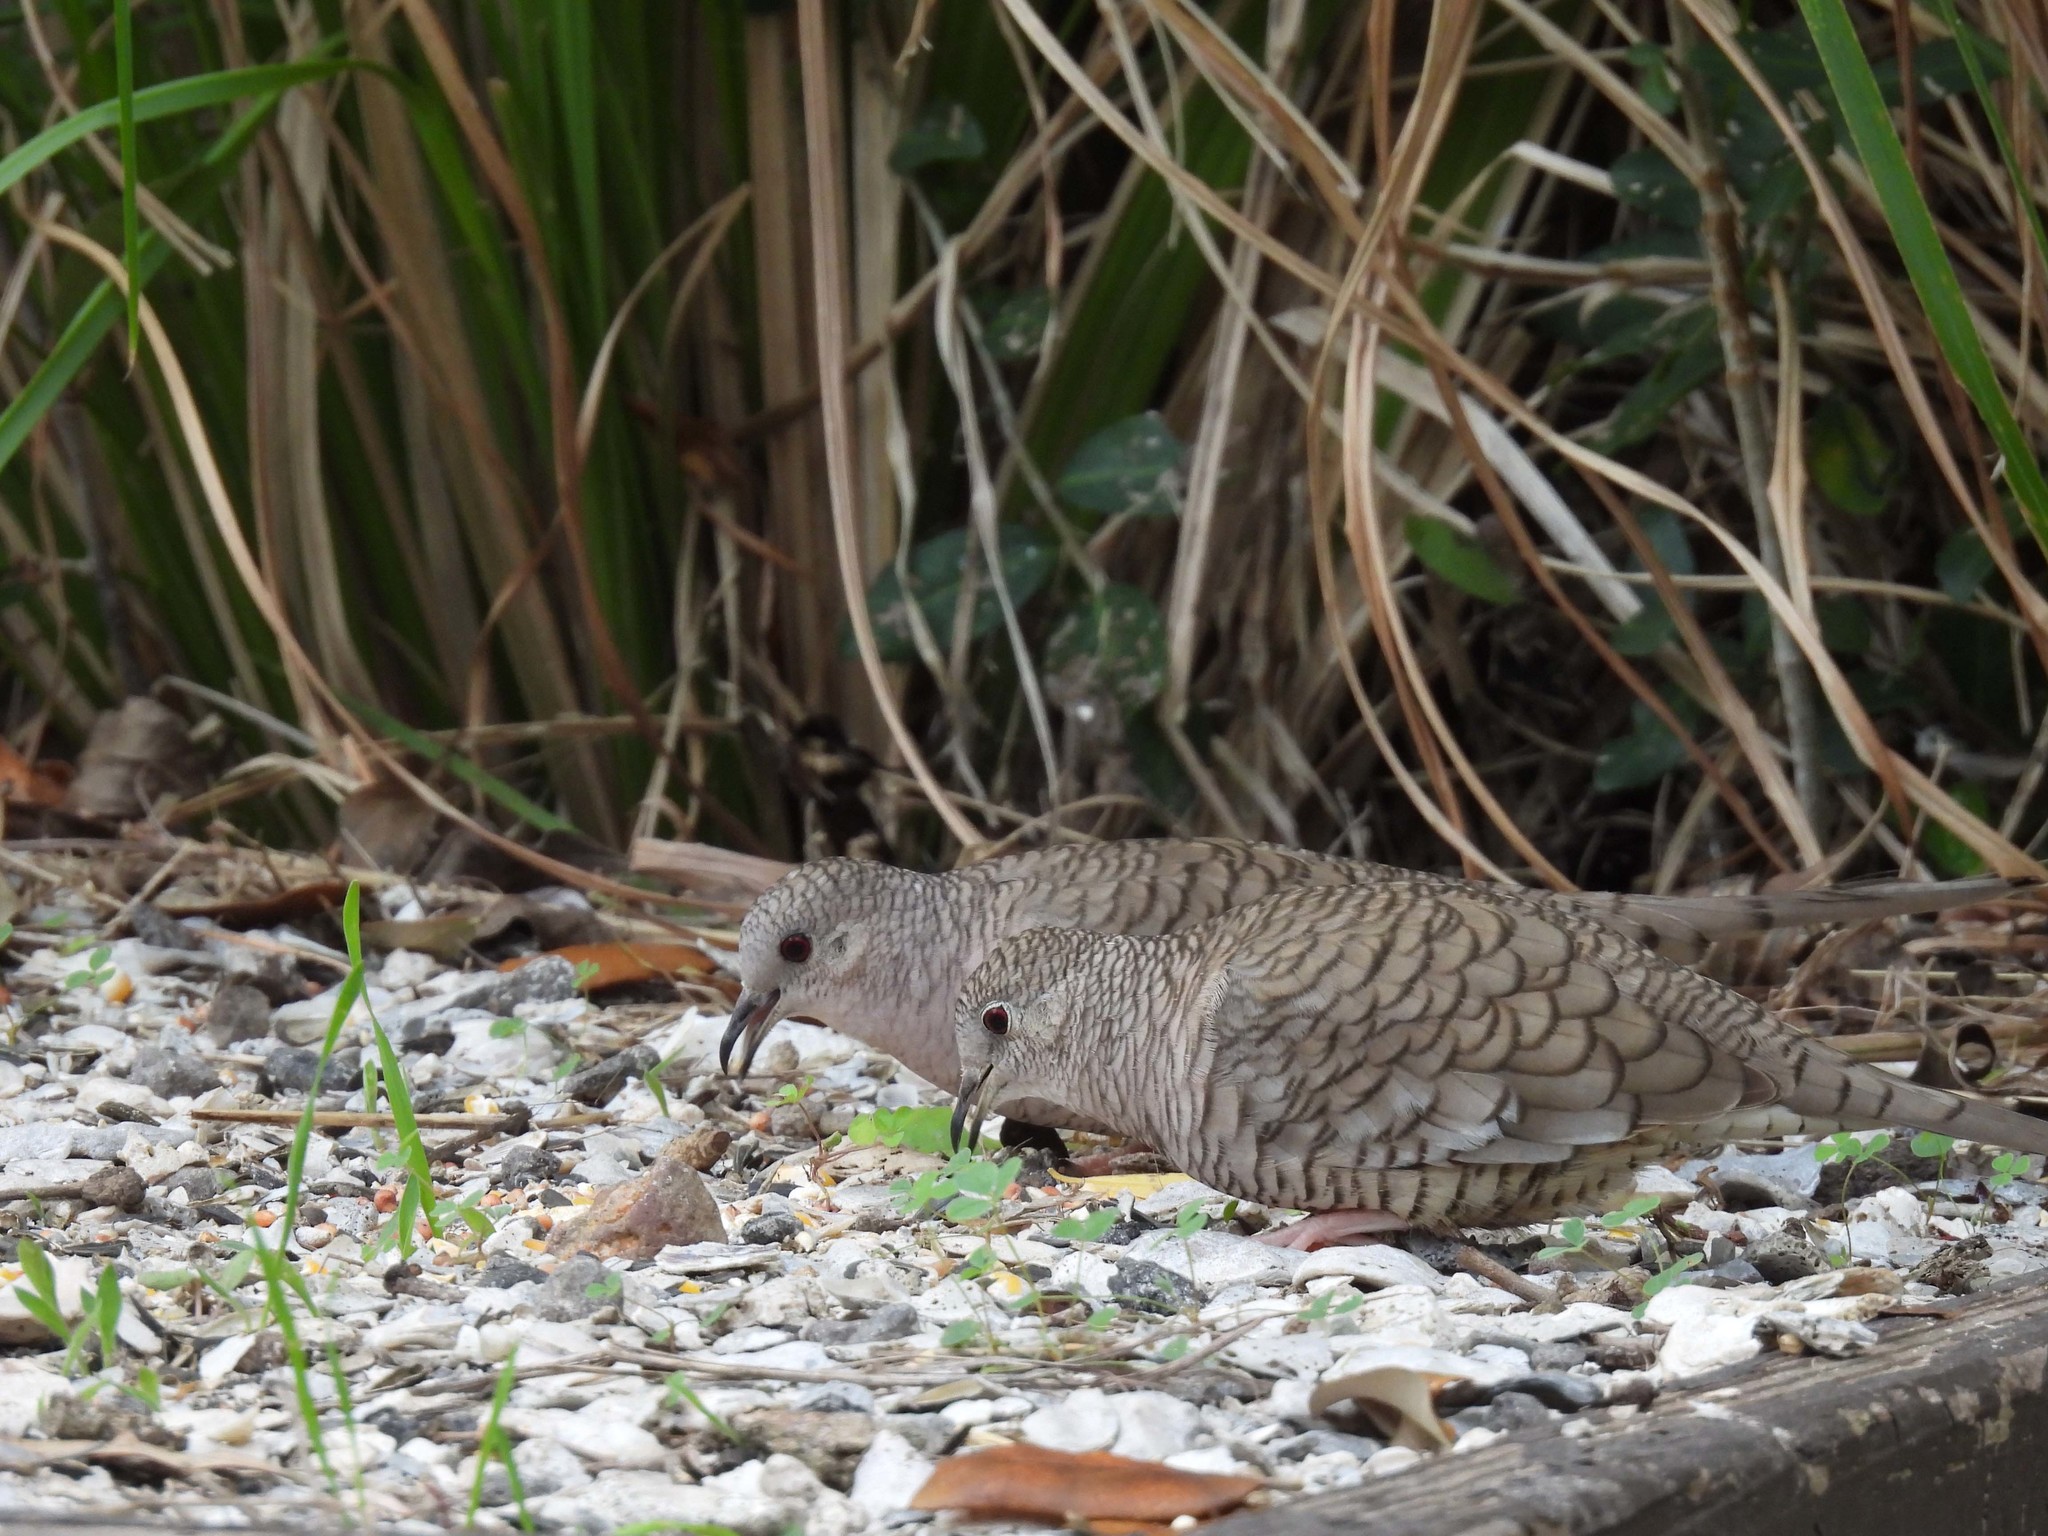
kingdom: Animalia
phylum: Chordata
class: Aves
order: Columbiformes
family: Columbidae
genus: Columbina
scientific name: Columbina inca
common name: Inca dove
